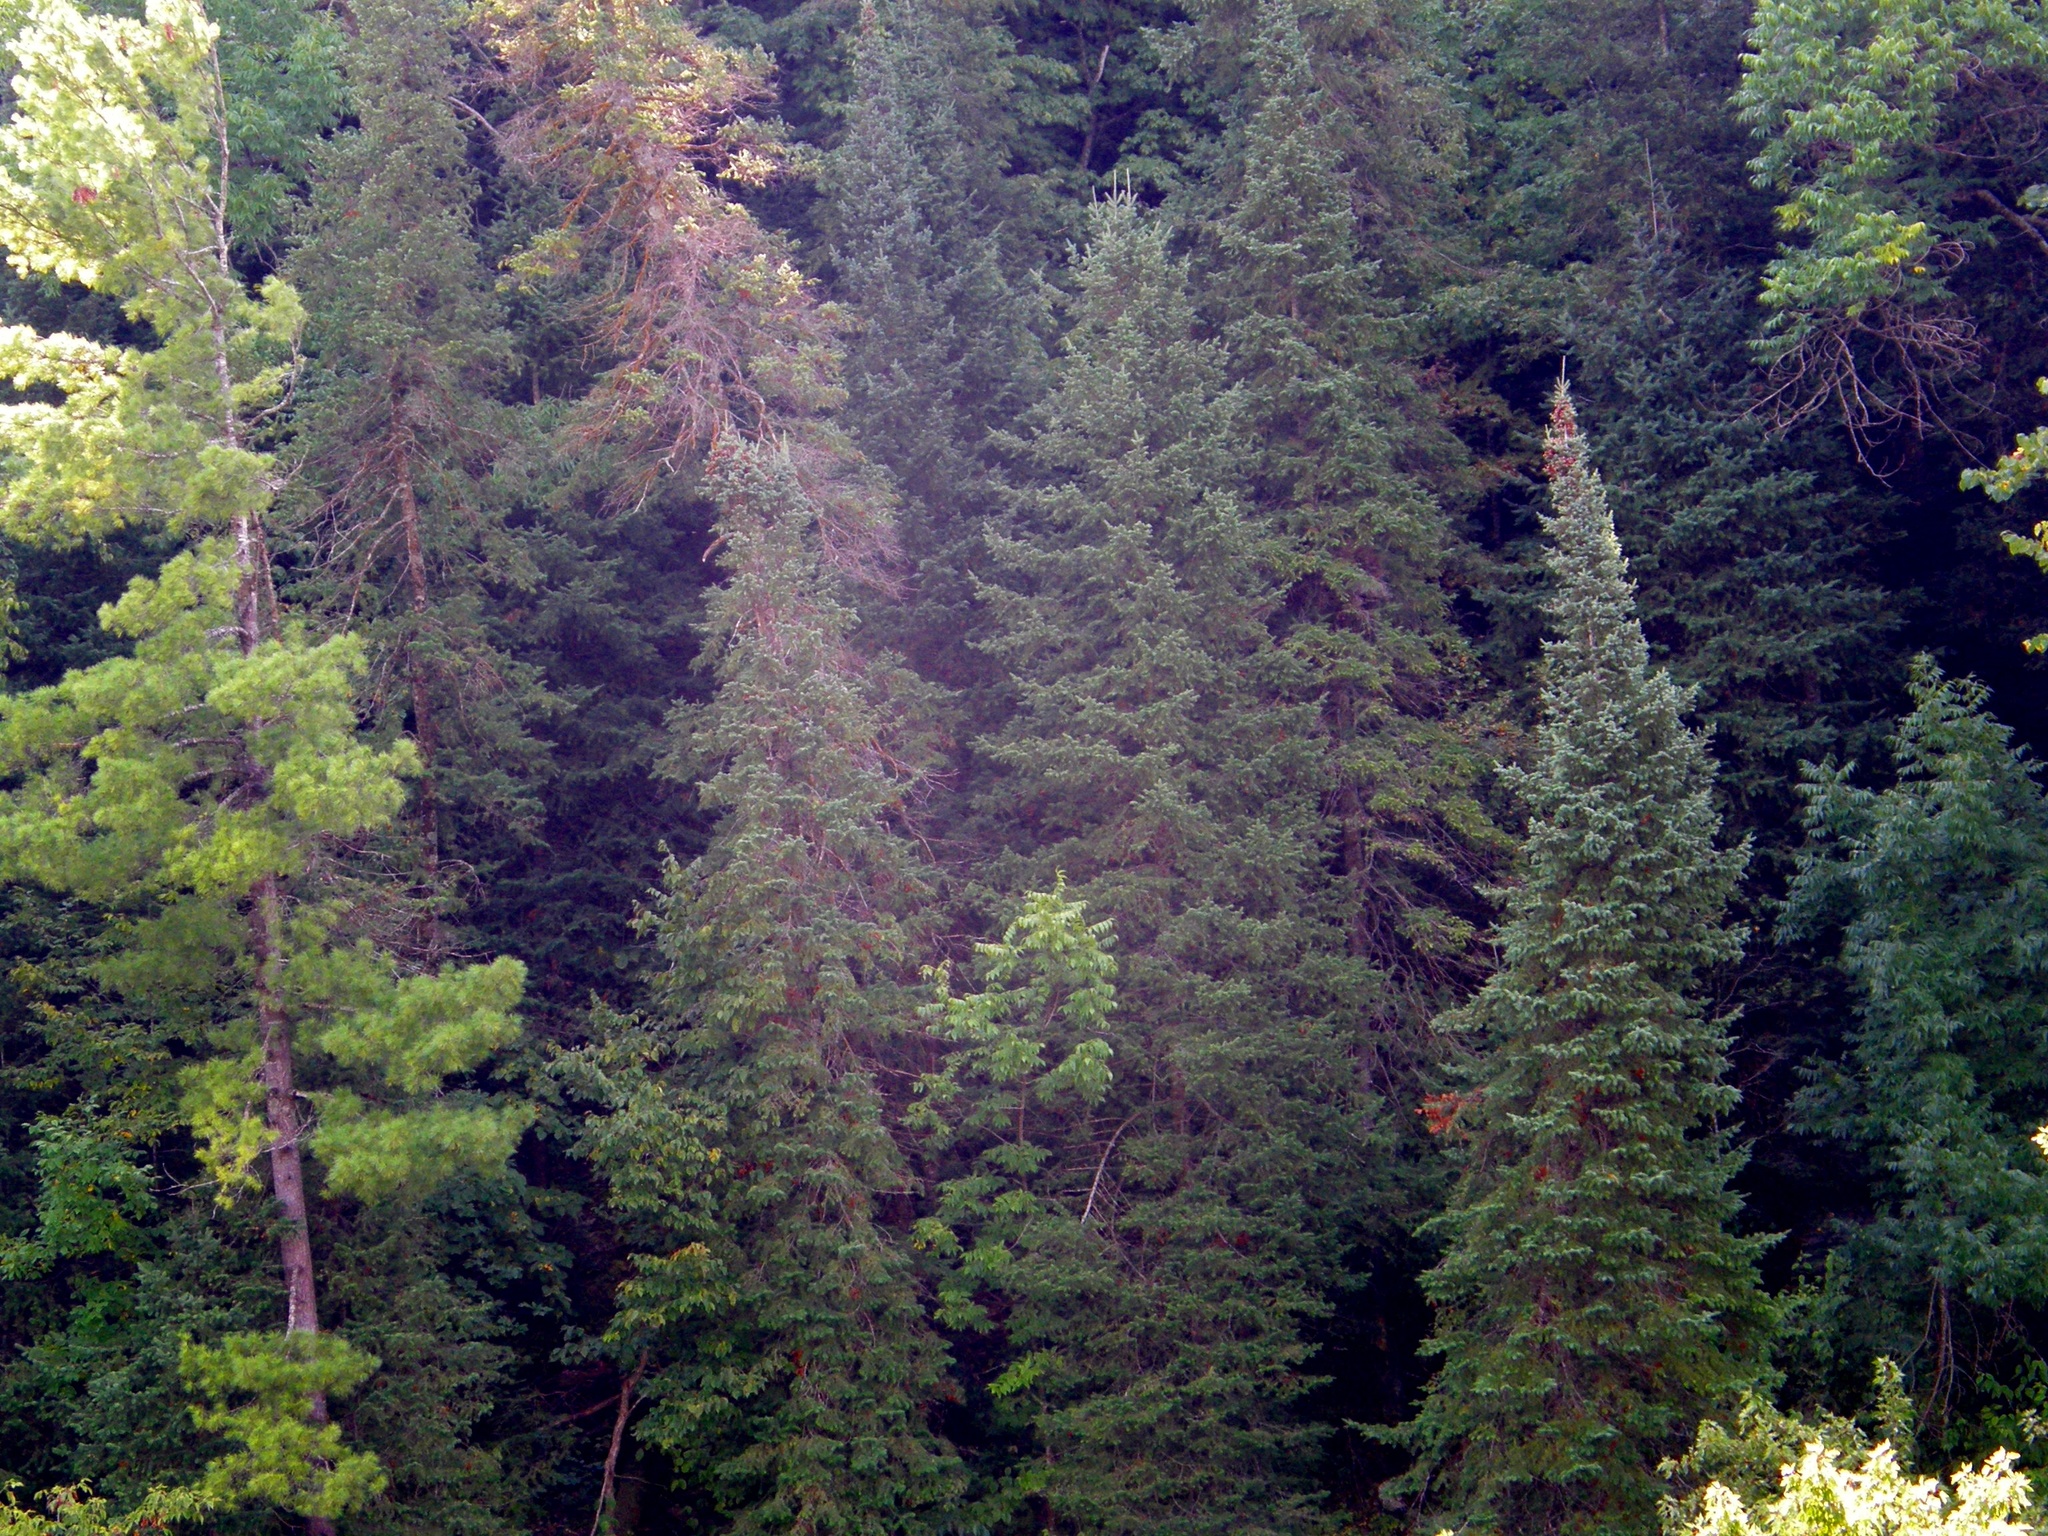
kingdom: Plantae
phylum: Tracheophyta
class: Pinopsida
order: Pinales
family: Pinaceae
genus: Abies
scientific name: Abies balsamea
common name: Balsam fir
